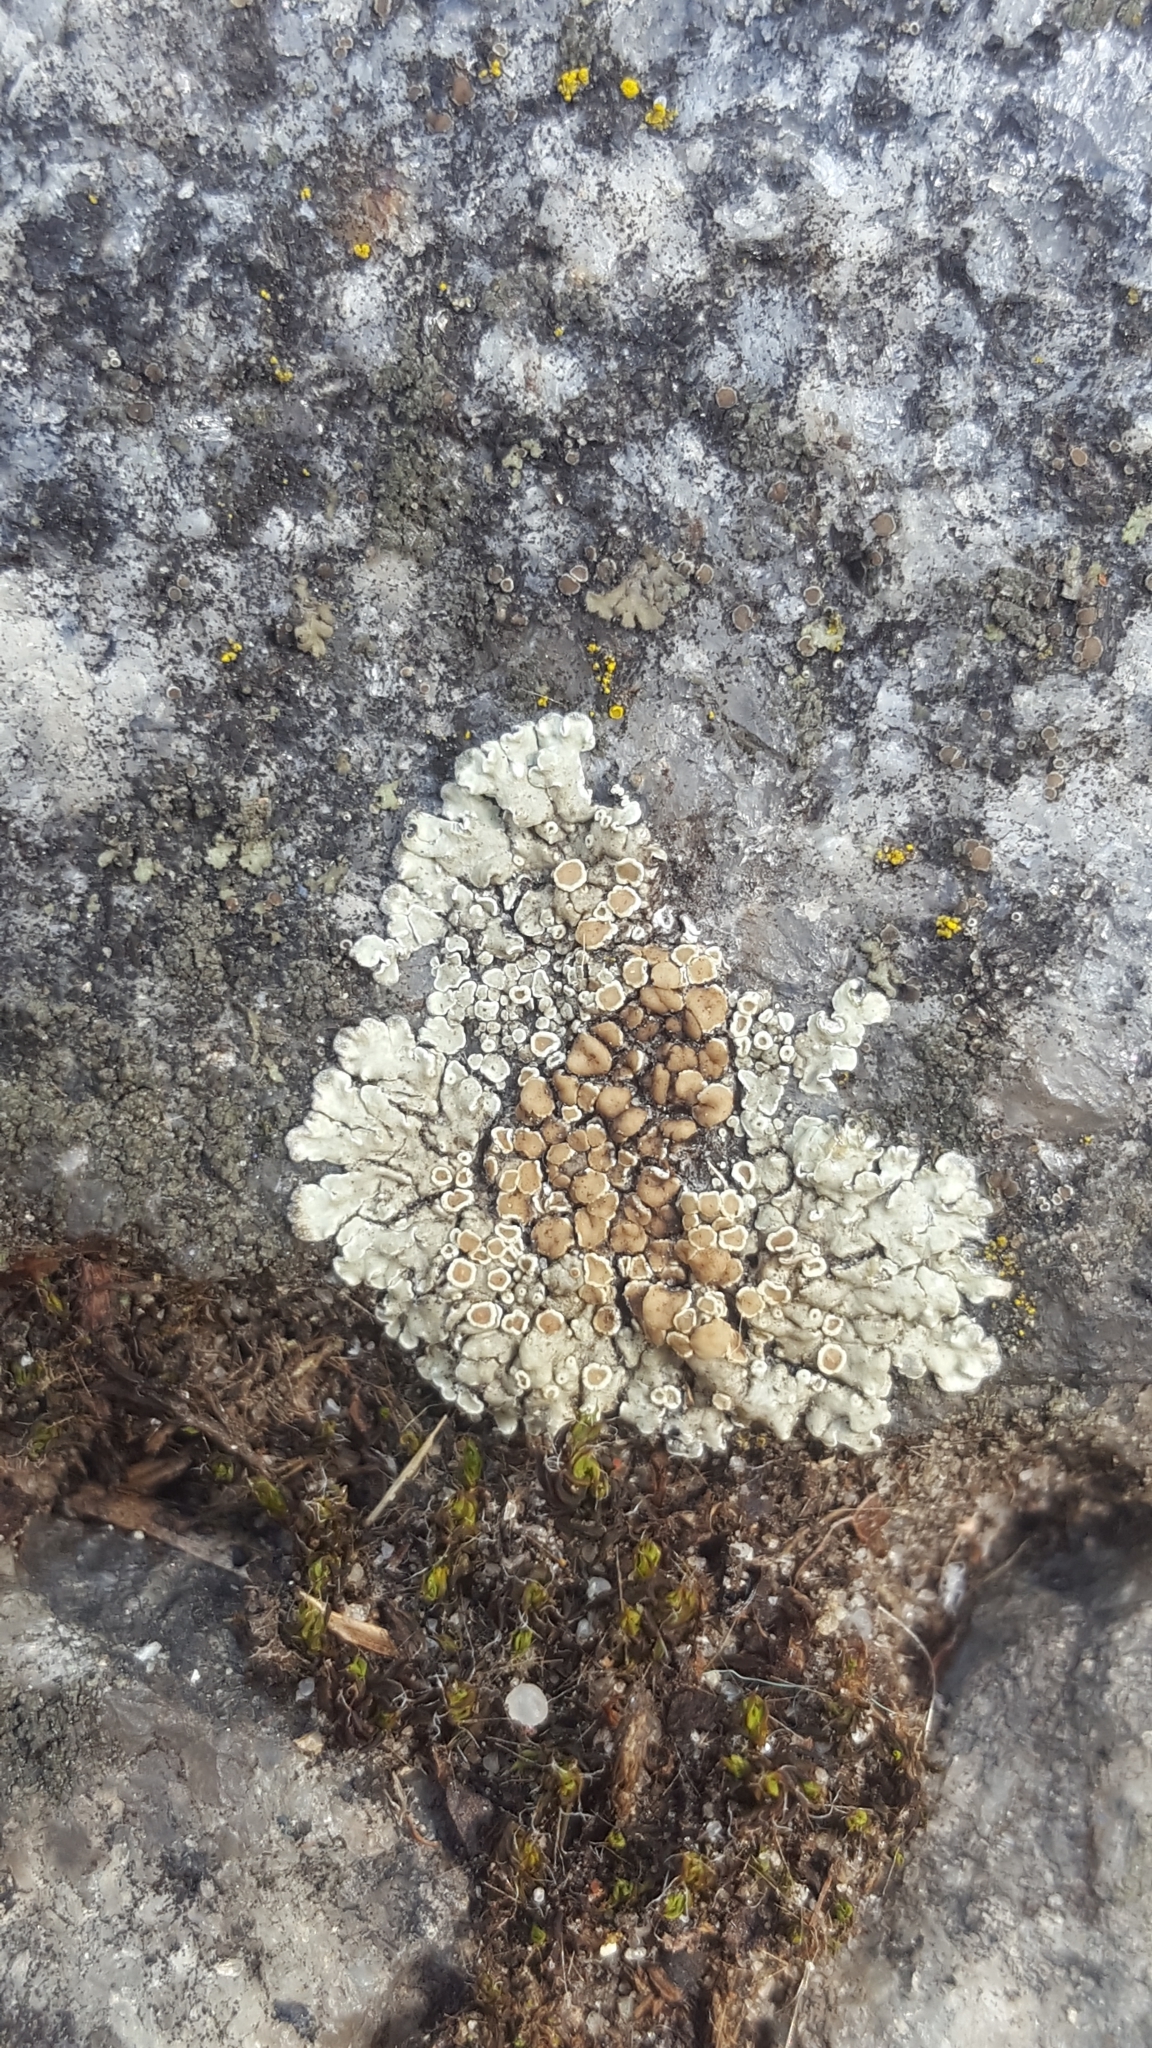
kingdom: Fungi
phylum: Ascomycota
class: Lecanoromycetes
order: Lecanorales
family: Lecanoraceae
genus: Protoparmeliopsis
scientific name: Protoparmeliopsis muralis
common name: Stonewall rim lichen
